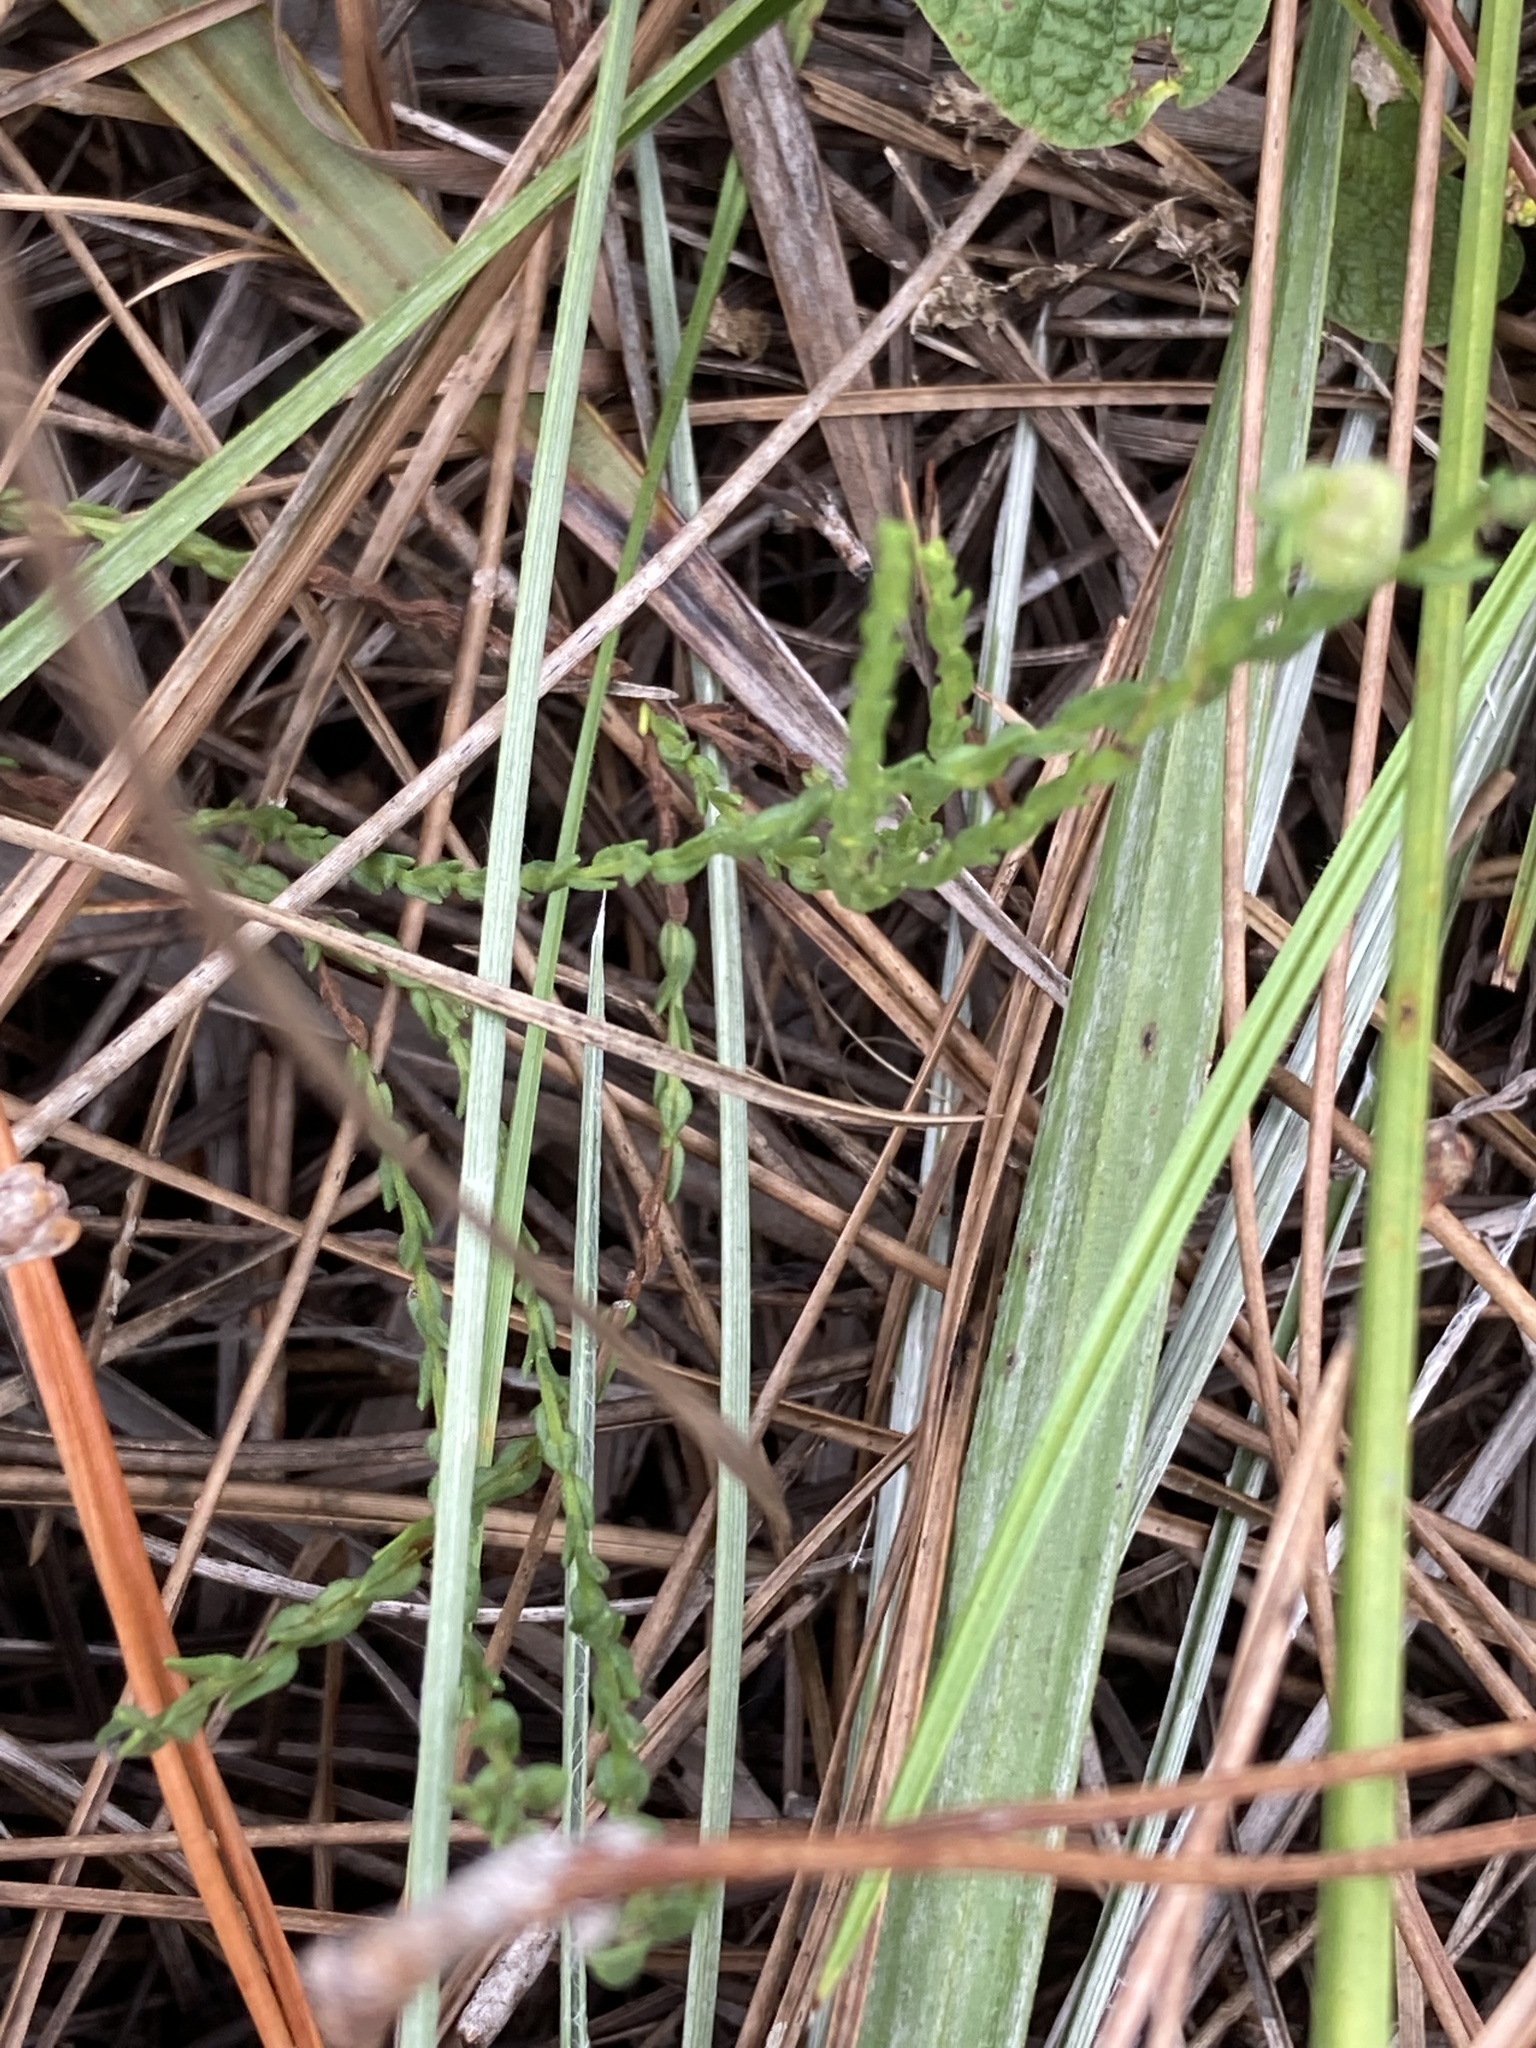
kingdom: Plantae
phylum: Tracheophyta
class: Magnoliopsida
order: Asterales
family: Asteraceae
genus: Symphyotrichum
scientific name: Symphyotrichum adnatum
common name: Scale-leaf aster
